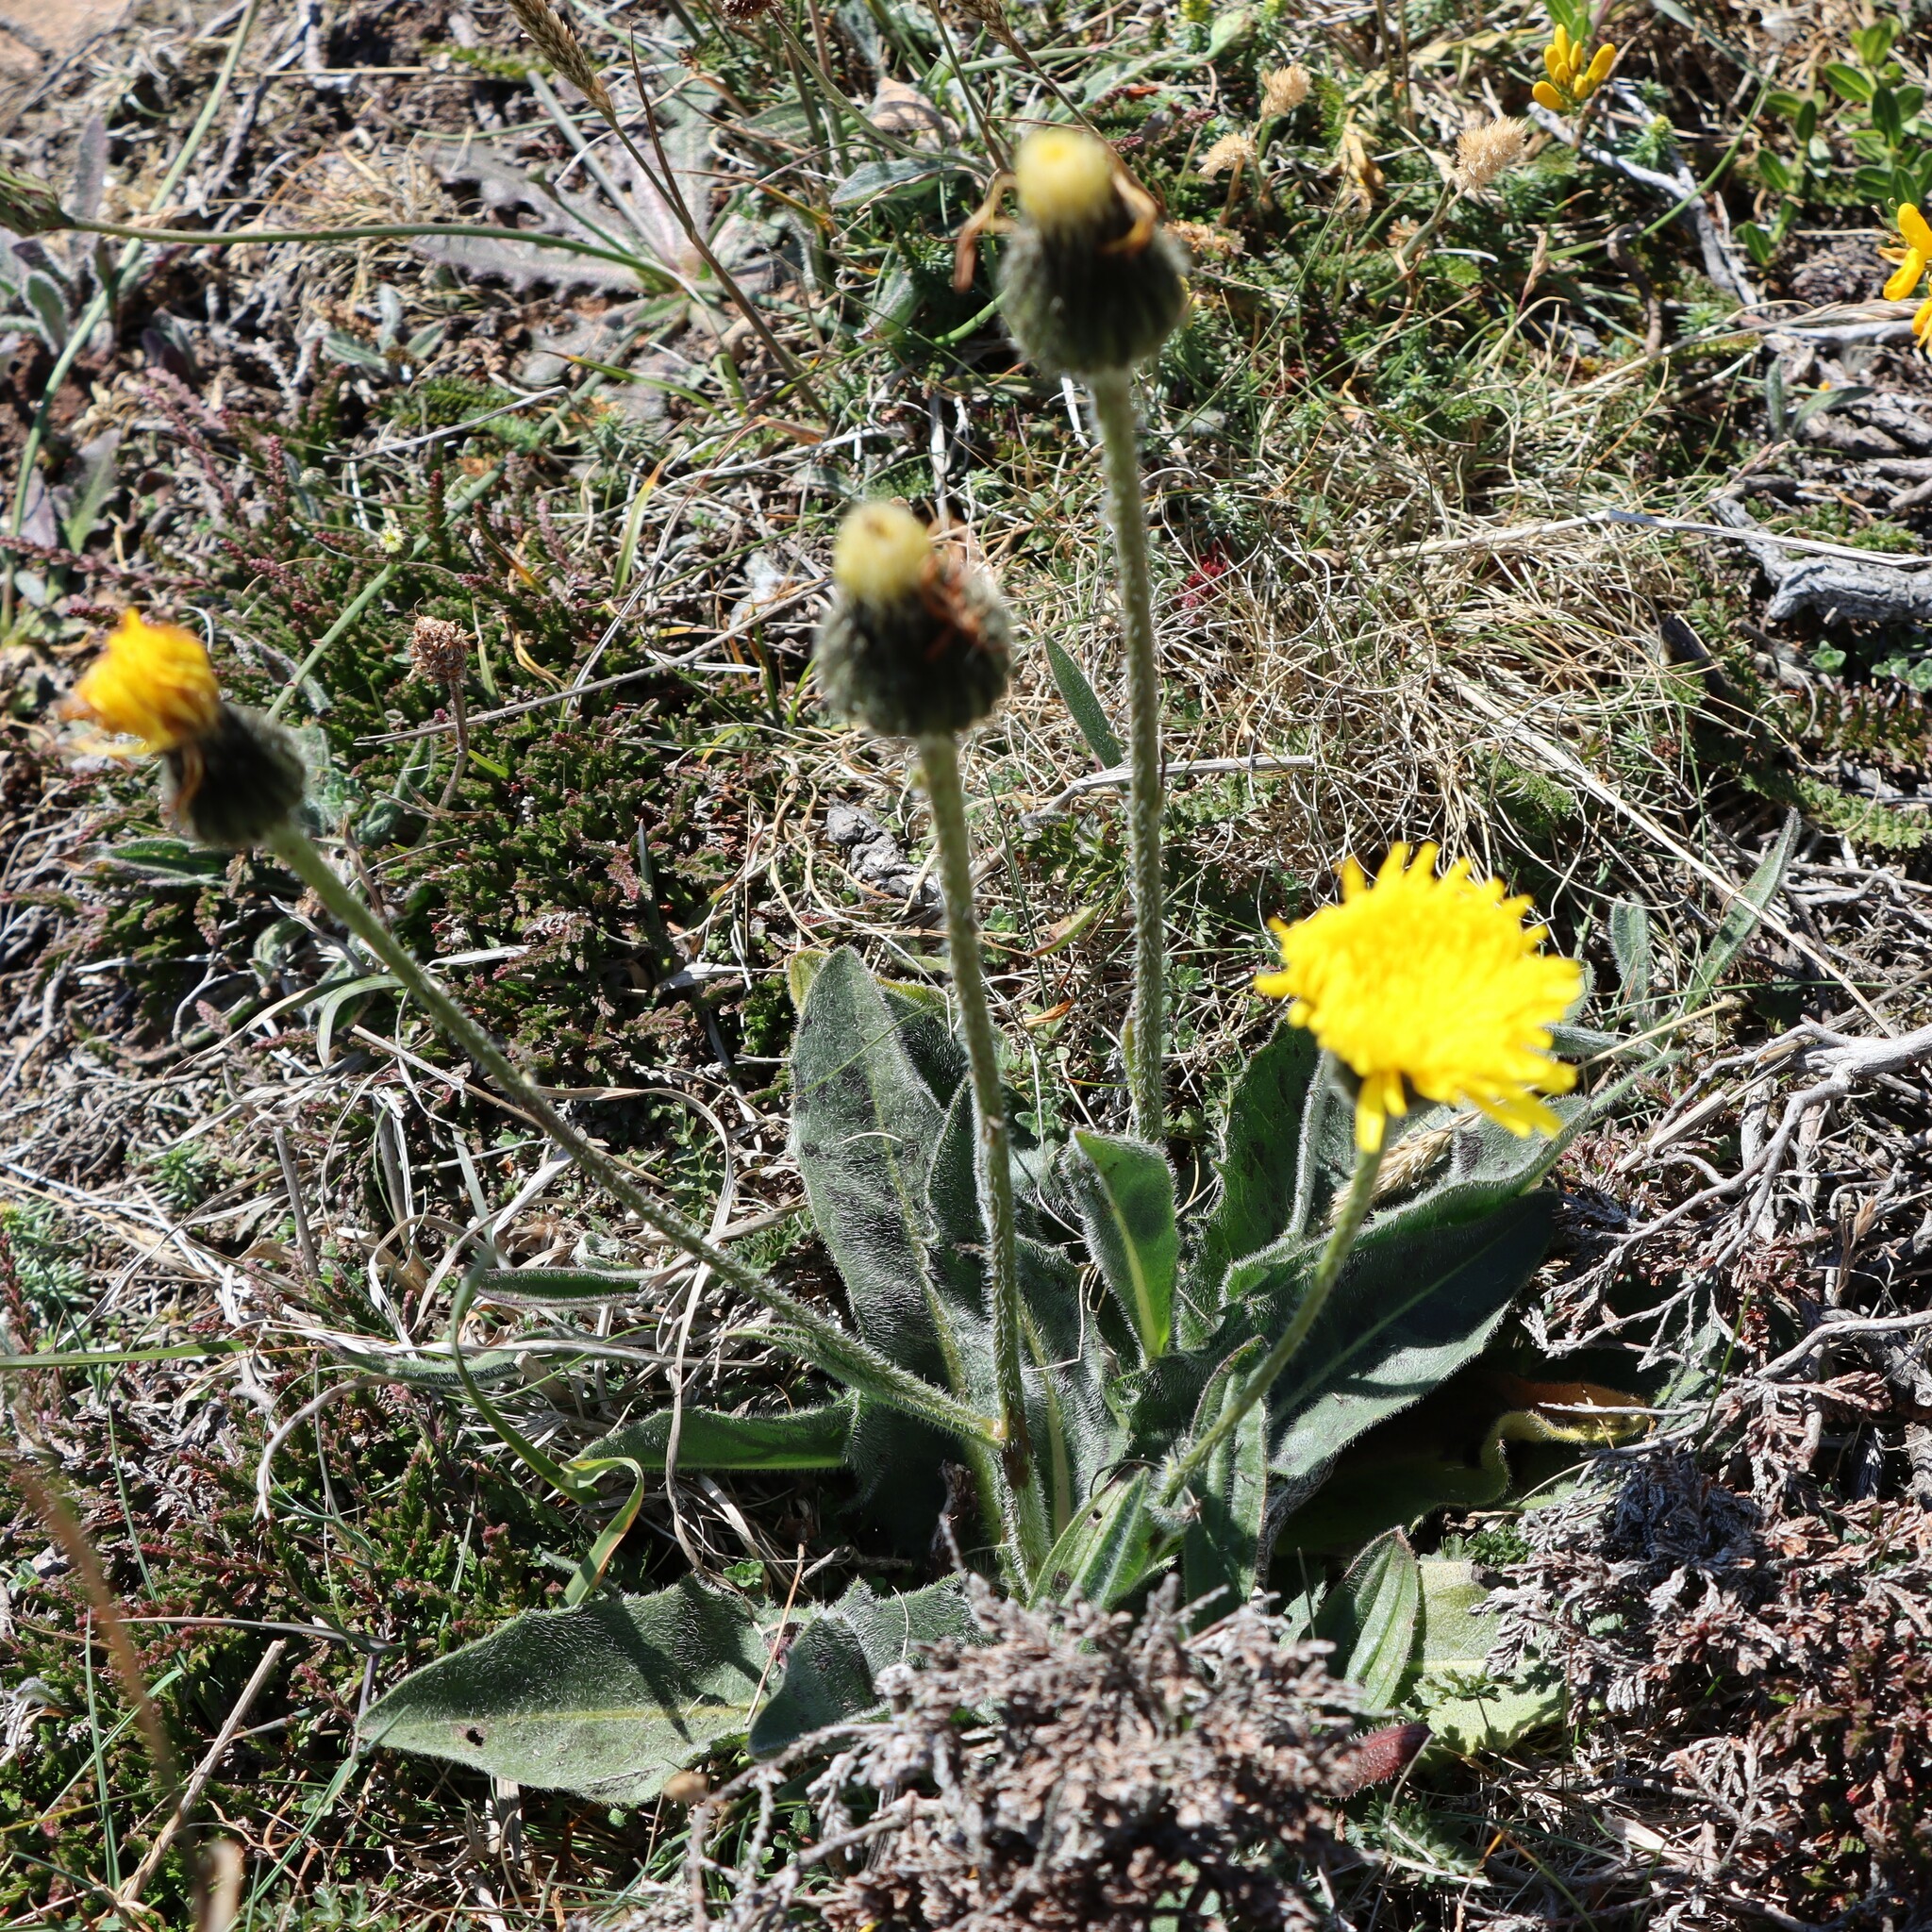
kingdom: Plantae
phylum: Tracheophyta
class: Magnoliopsida
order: Asterales
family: Asteraceae
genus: Trommsdorffia
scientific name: Trommsdorffia maculata
